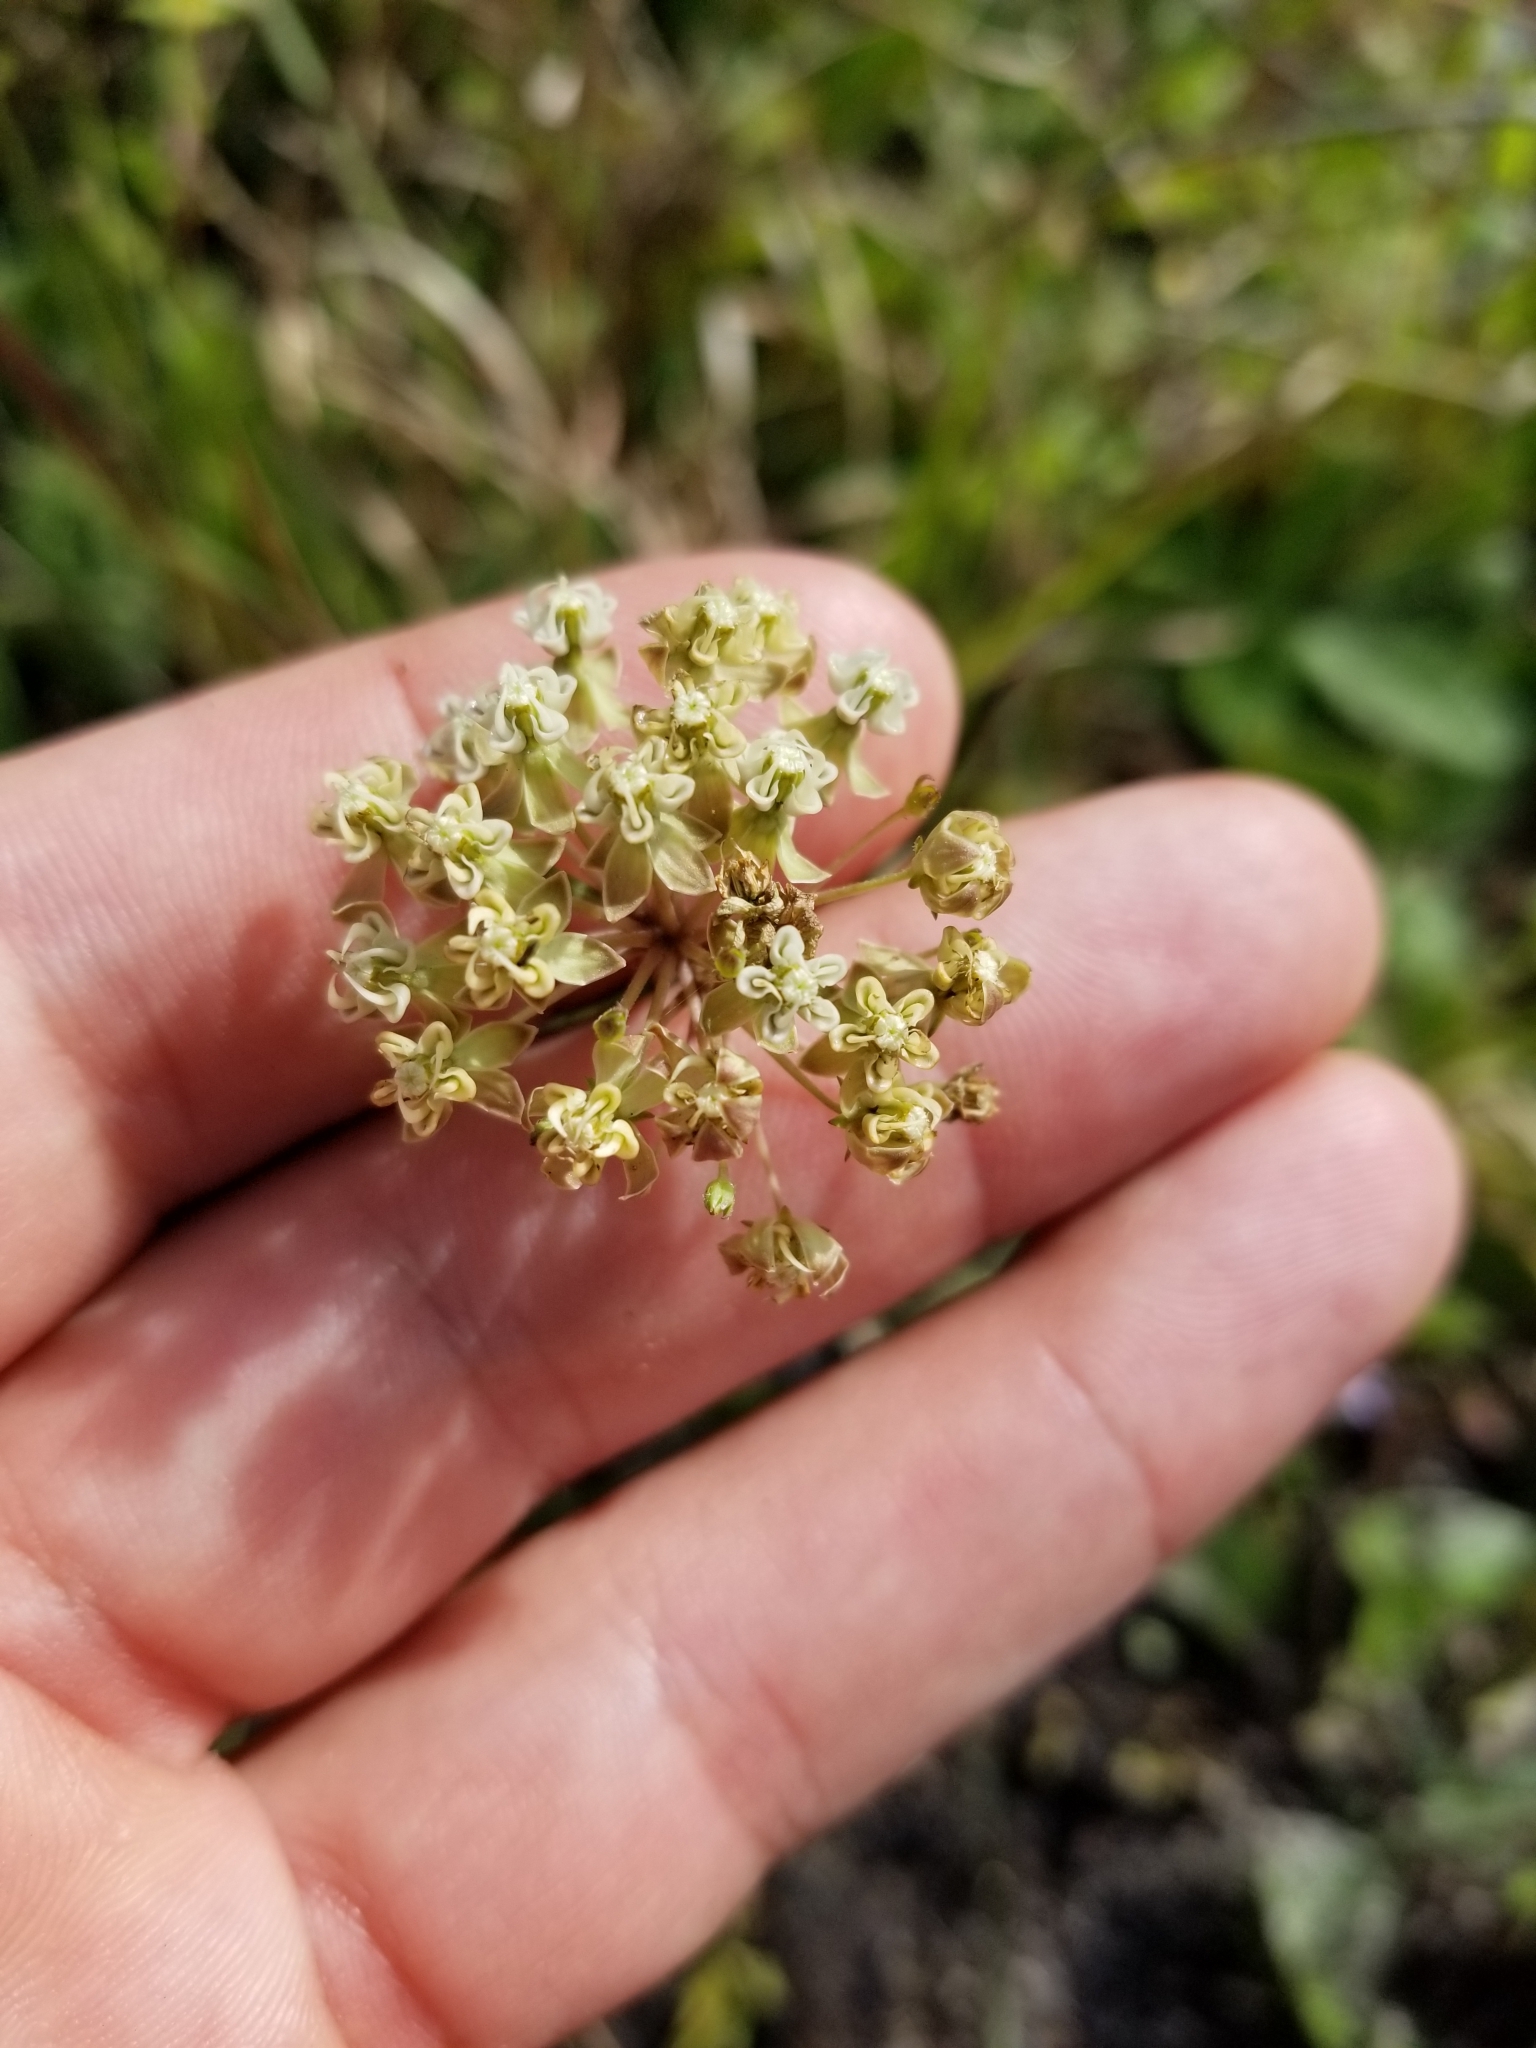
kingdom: Plantae
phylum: Tracheophyta
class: Magnoliopsida
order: Gentianales
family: Apocynaceae
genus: Asclepias
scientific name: Asclepias verticillata
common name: Eastern whorled milkweed
